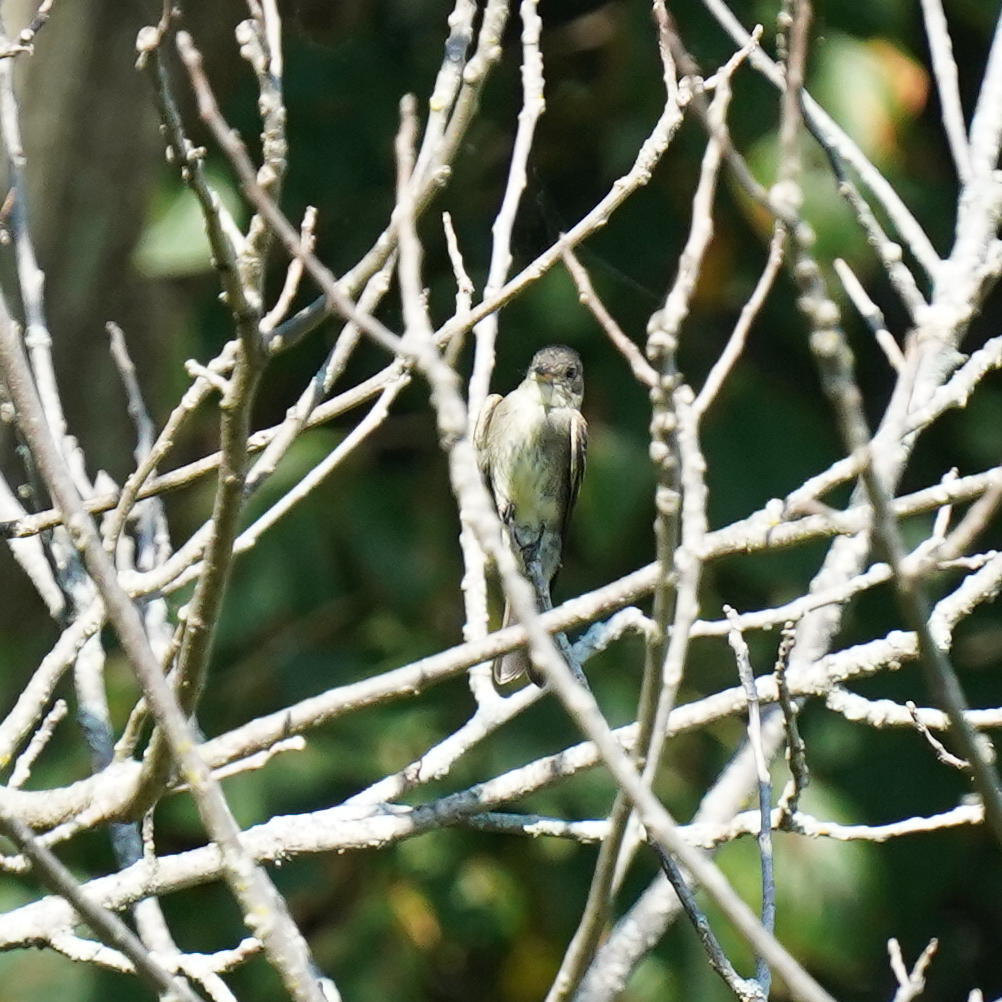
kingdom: Animalia
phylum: Chordata
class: Aves
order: Passeriformes
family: Tyrannidae
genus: Contopus
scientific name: Contopus virens
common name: Eastern wood-pewee
